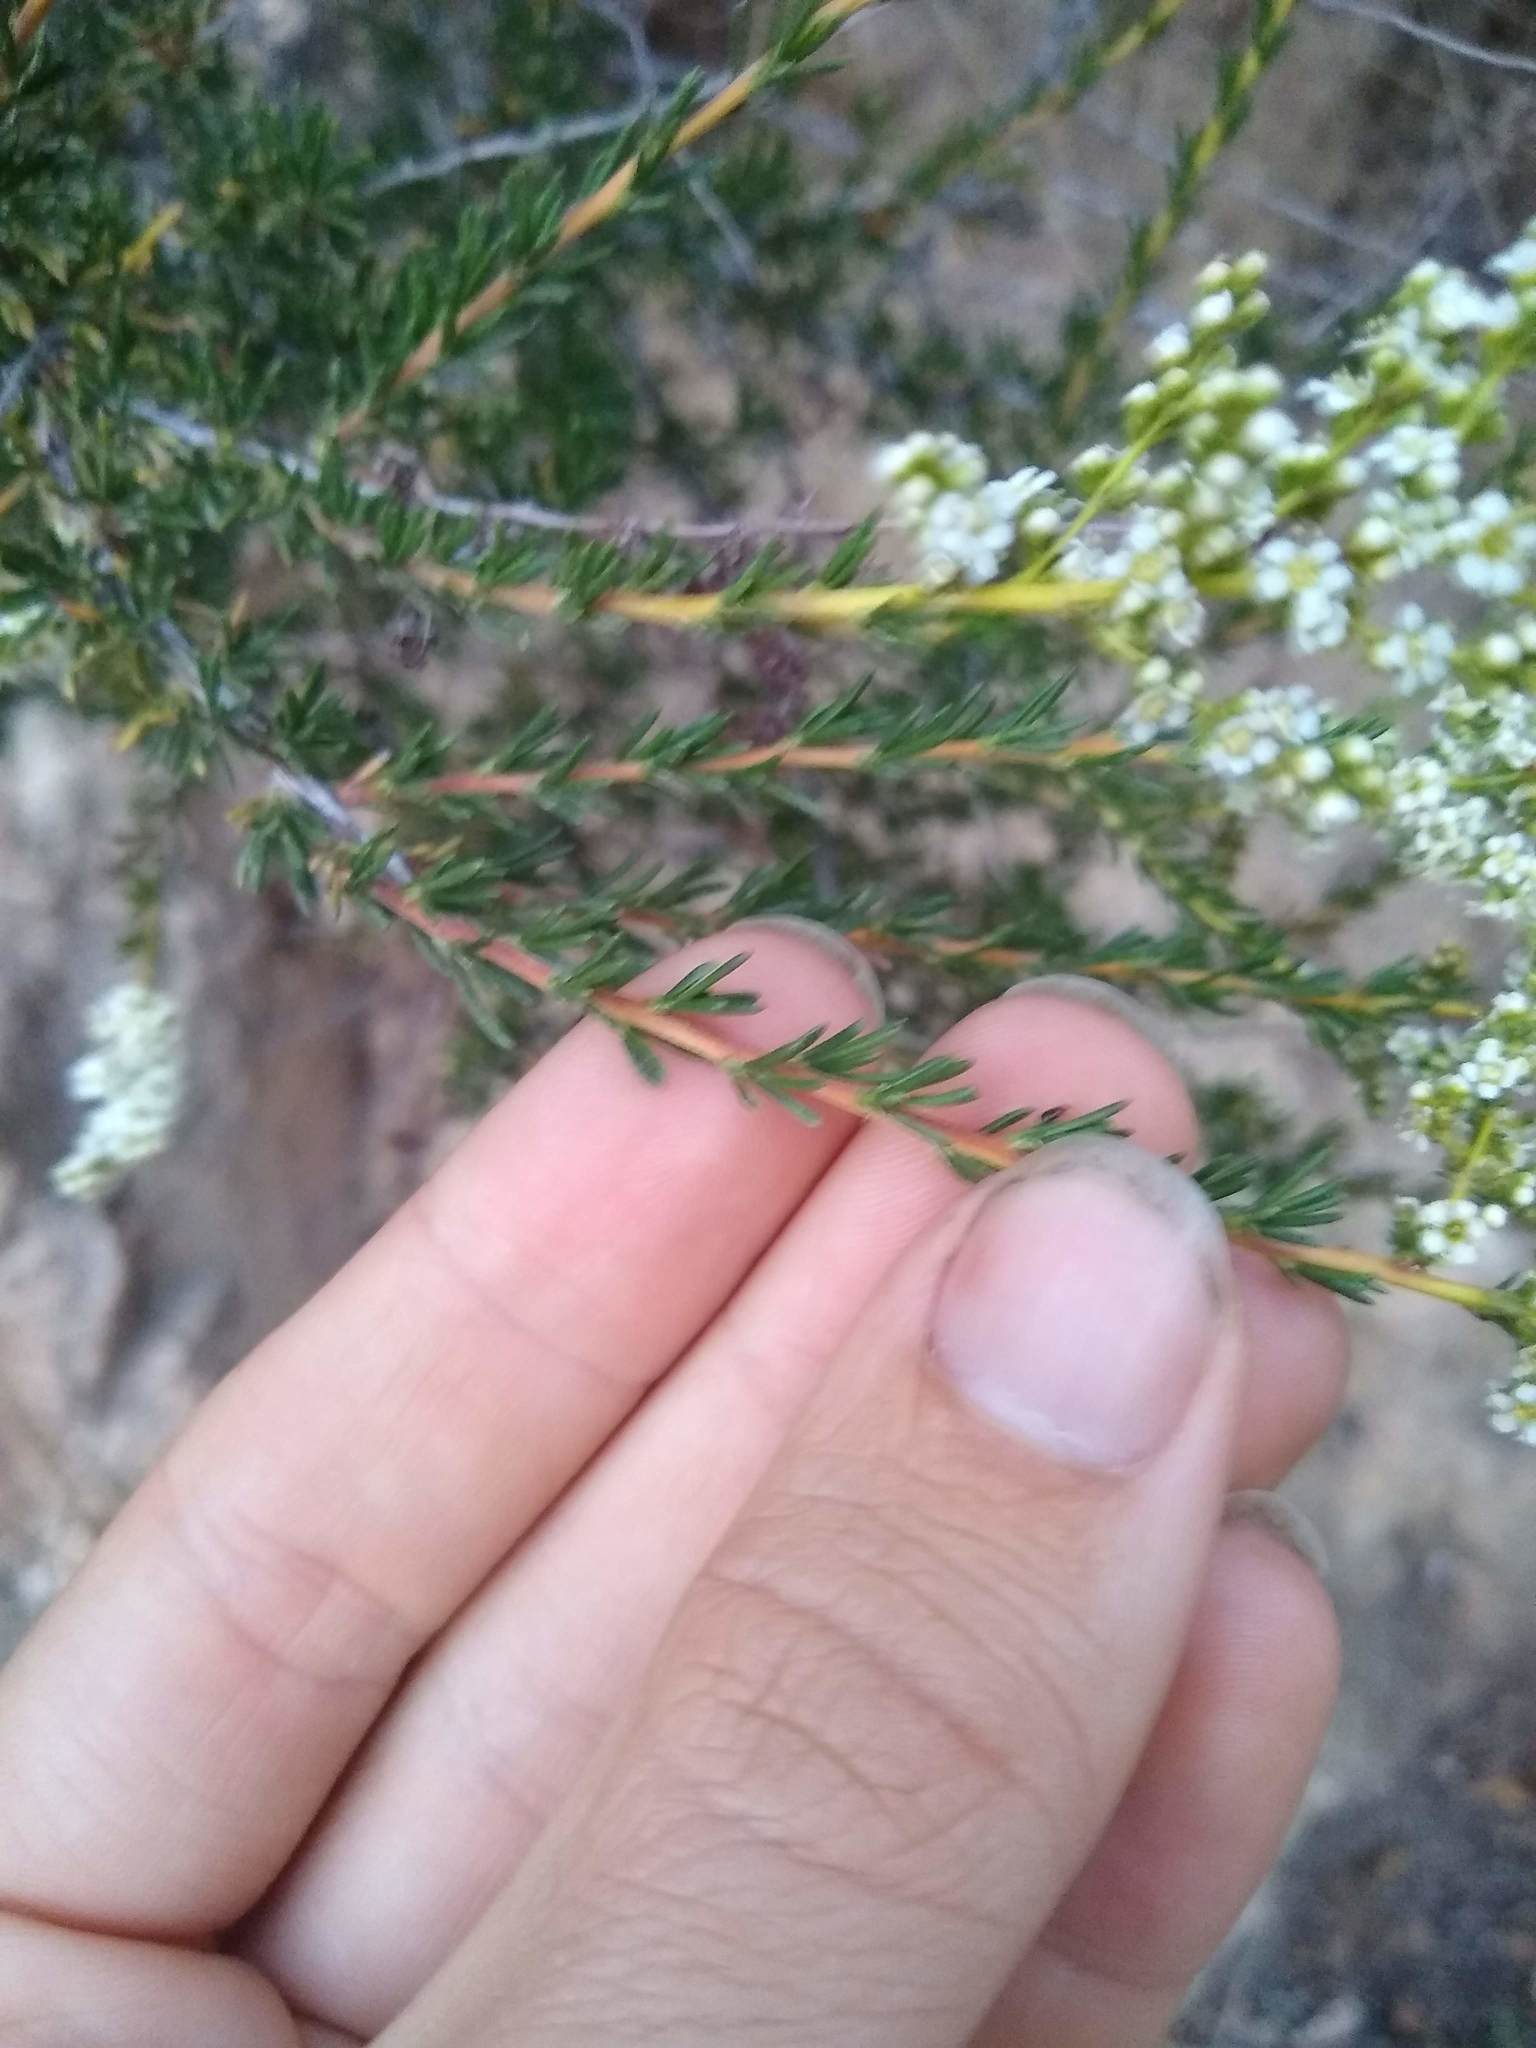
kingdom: Plantae
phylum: Tracheophyta
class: Magnoliopsida
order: Rosales
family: Rosaceae
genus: Adenostoma
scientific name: Adenostoma fasciculatum
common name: Chamise
